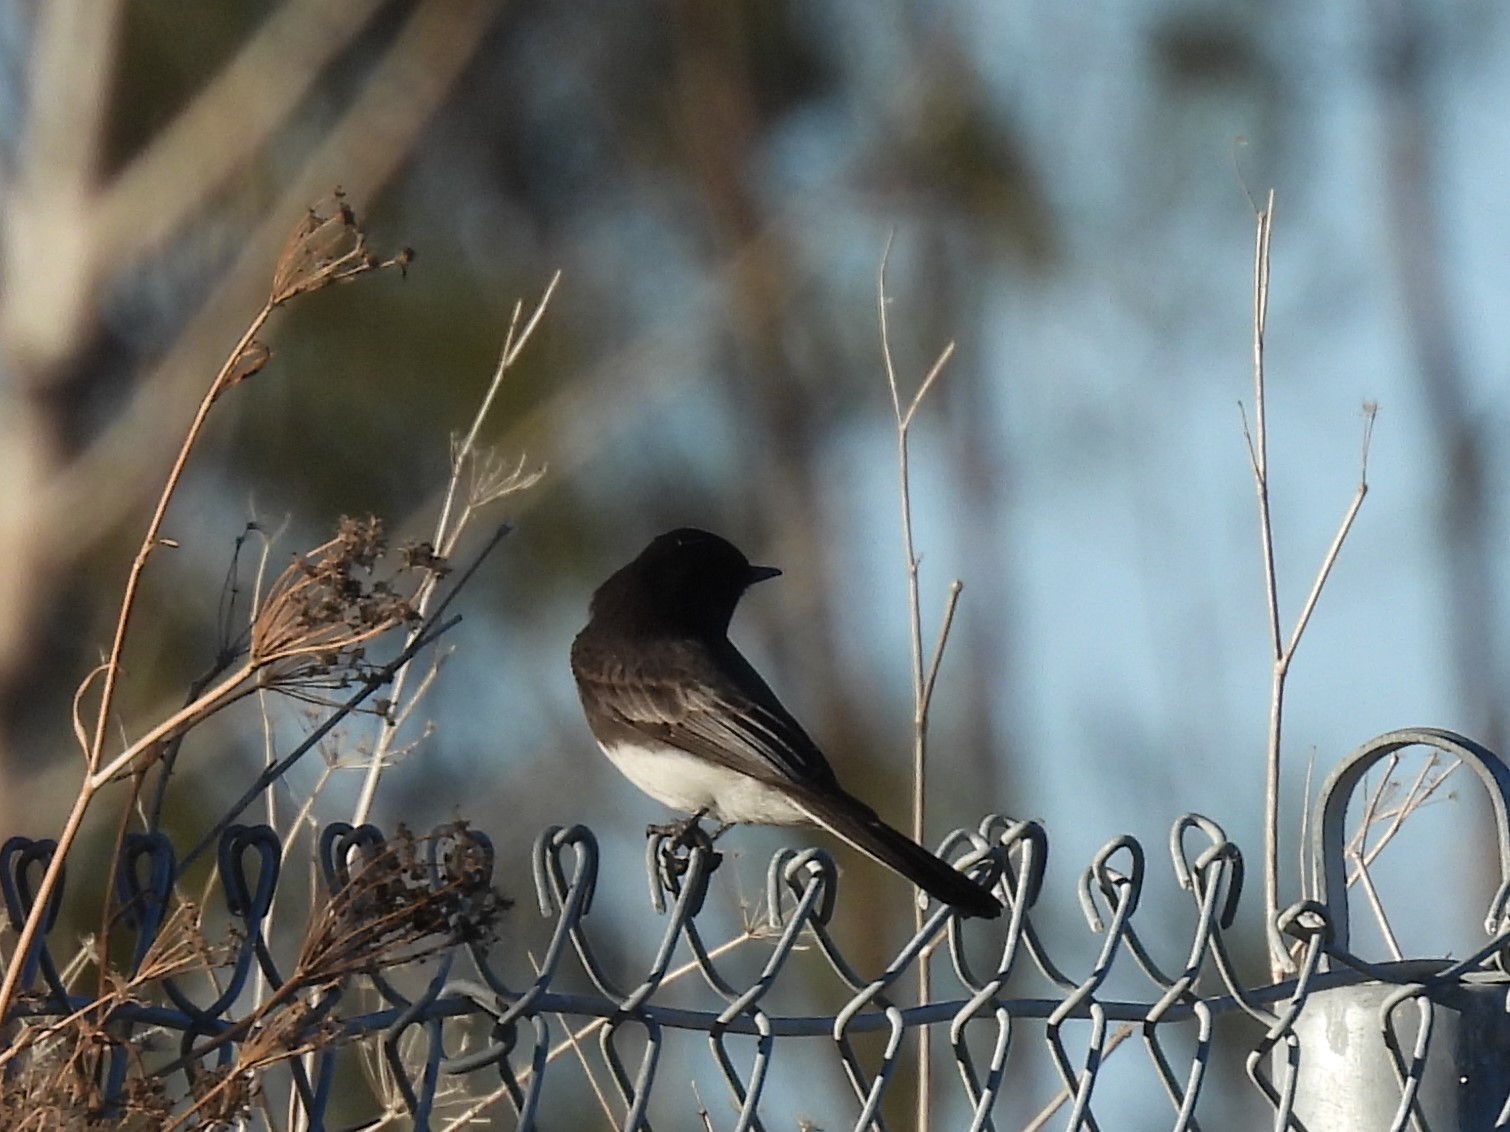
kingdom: Animalia
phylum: Chordata
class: Aves
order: Passeriformes
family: Tyrannidae
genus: Sayornis
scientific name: Sayornis nigricans
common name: Black phoebe
